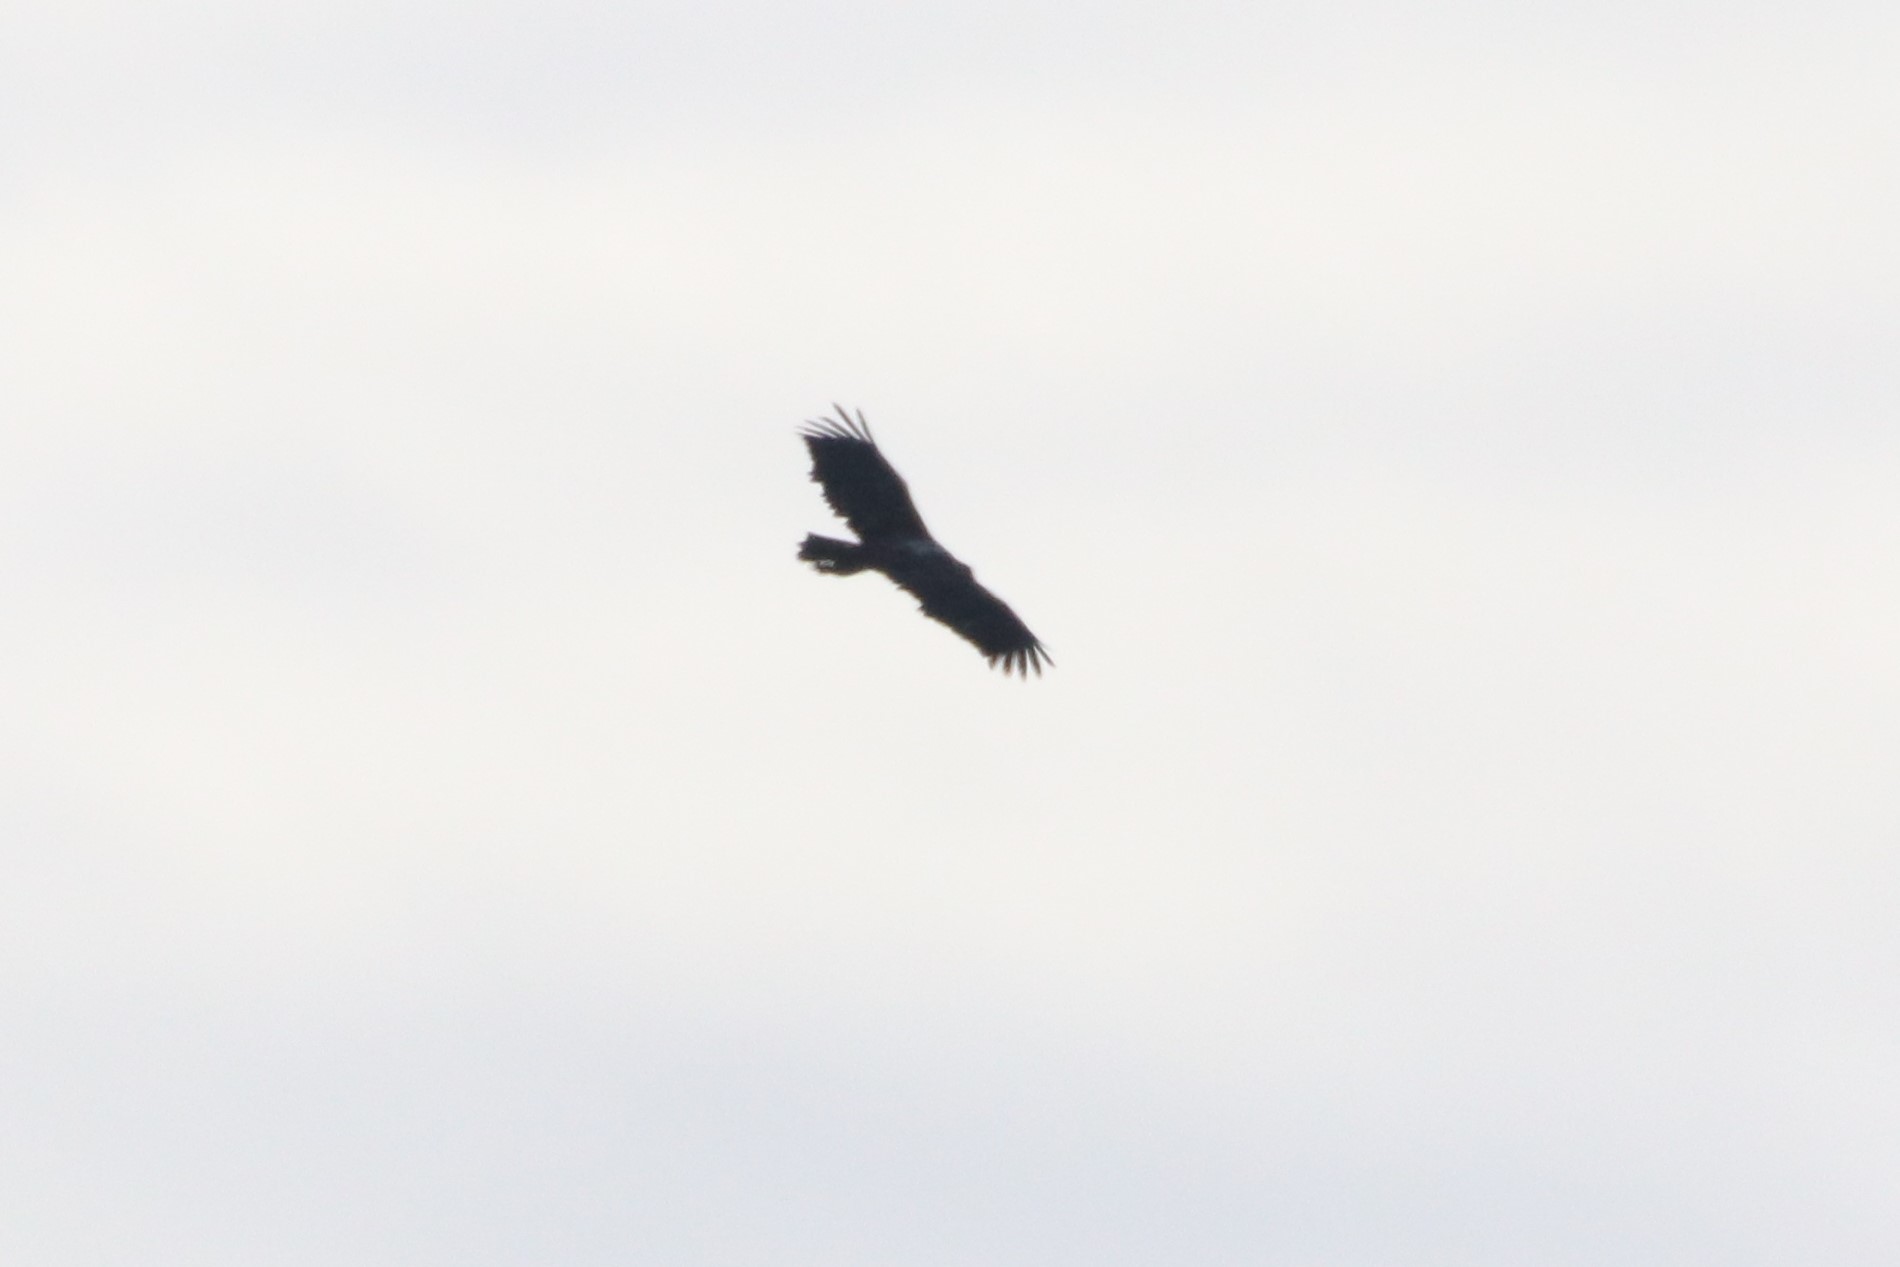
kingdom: Animalia
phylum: Chordata
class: Aves
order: Accipitriformes
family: Accipitridae
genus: Haliaeetus
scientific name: Haliaeetus leucocephalus
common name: Bald eagle
